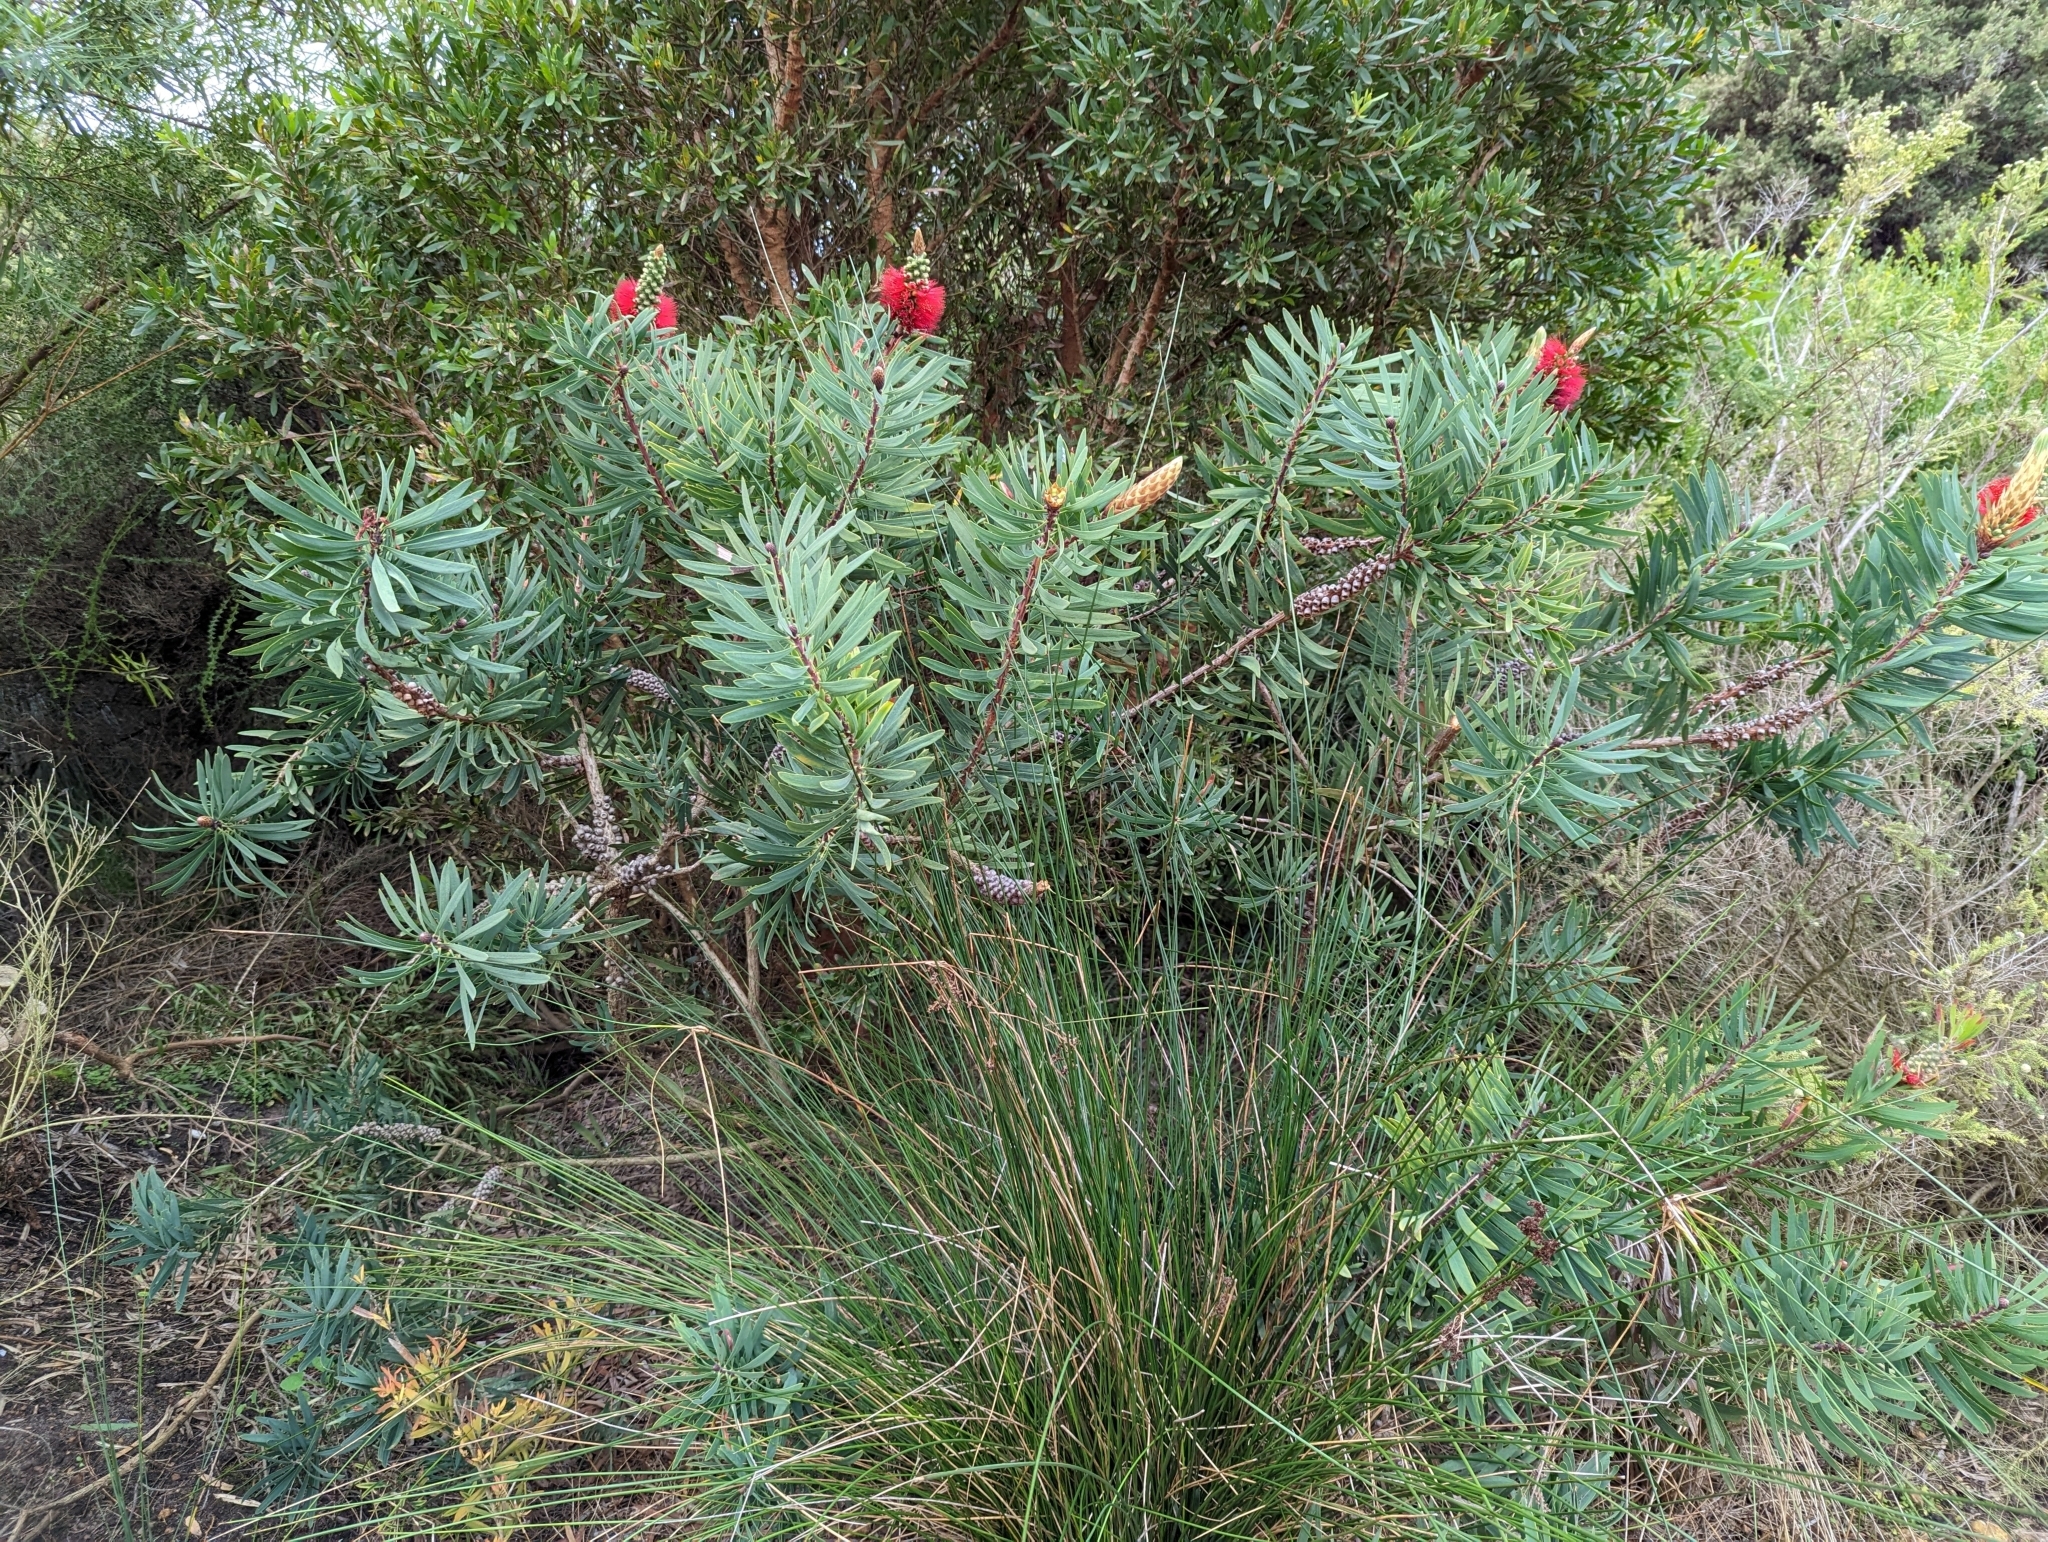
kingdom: Plantae
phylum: Tracheophyta
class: Magnoliopsida
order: Myrtales
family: Myrtaceae
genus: Melaleuca
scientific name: Melaleuca glauca
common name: Albany-bottlebrush
